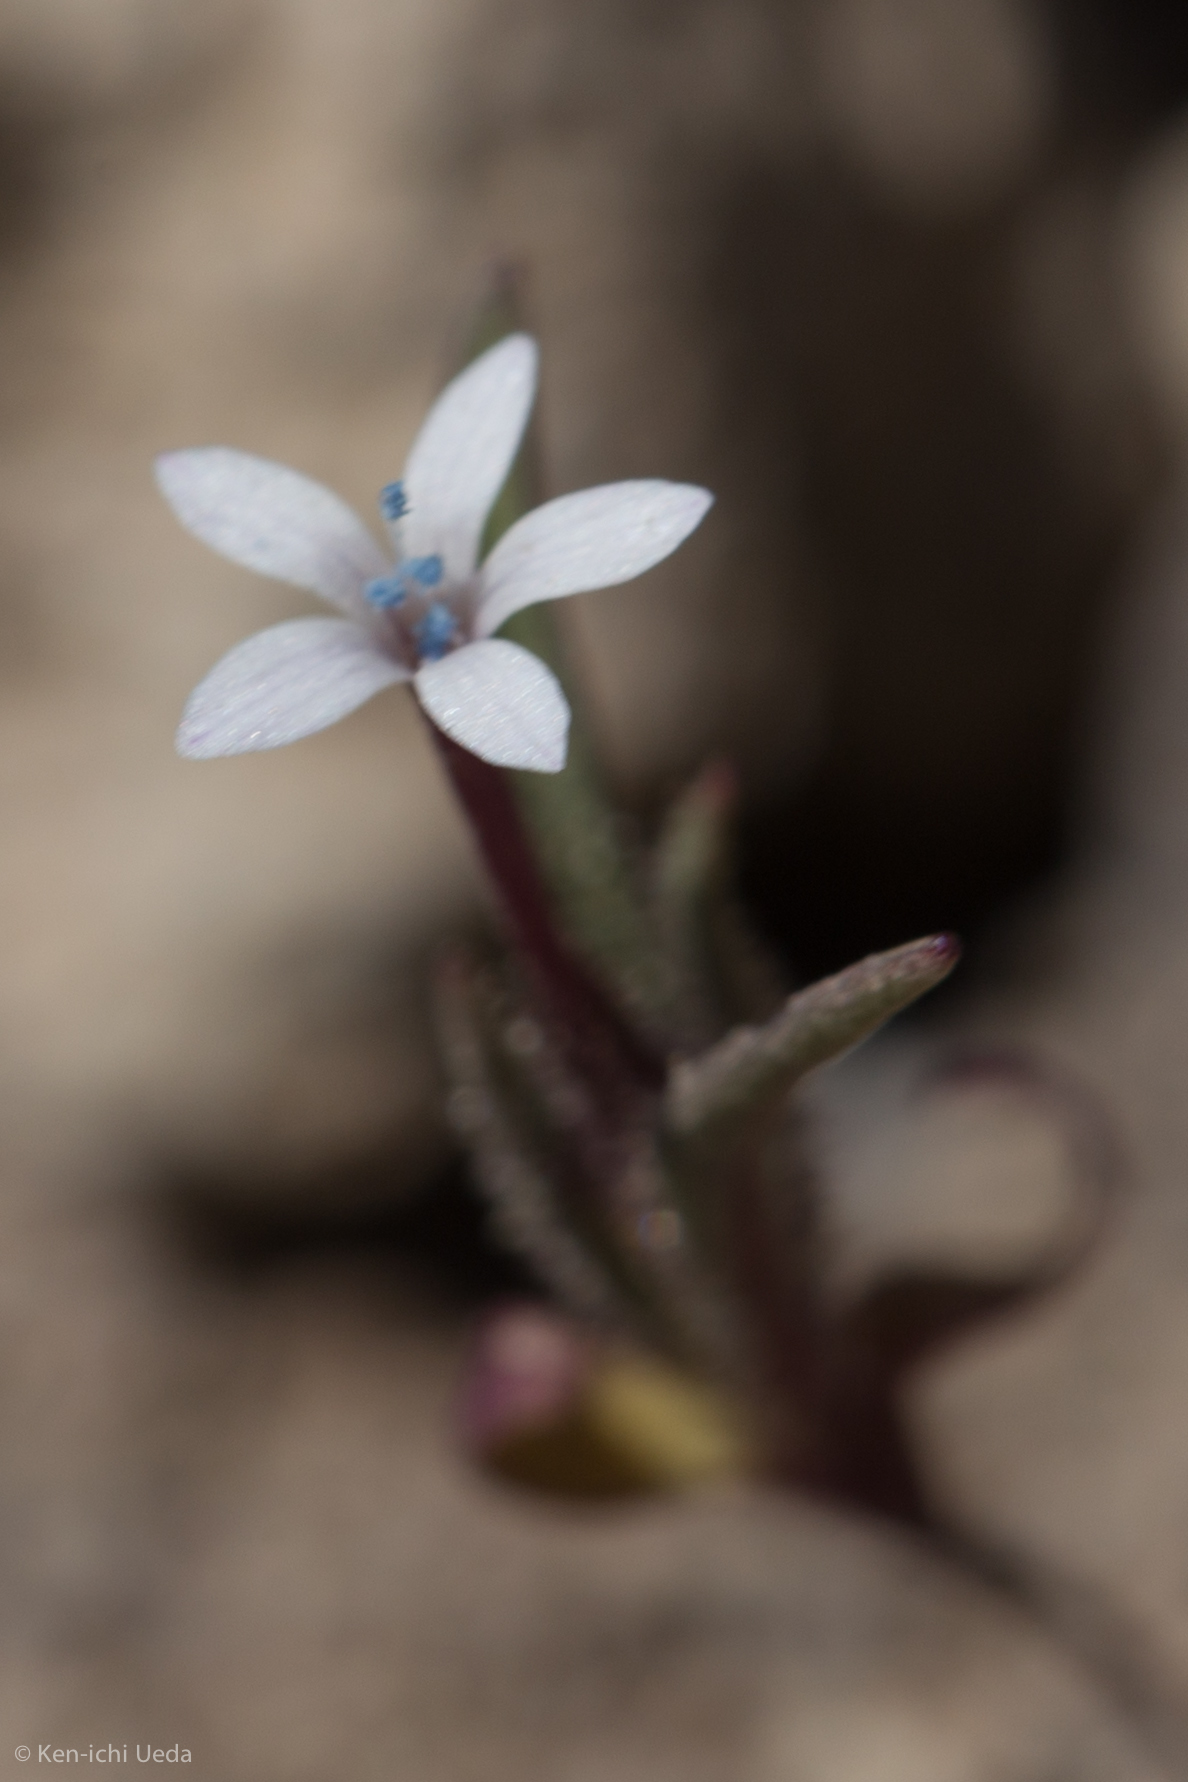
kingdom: Plantae
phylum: Tracheophyta
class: Magnoliopsida
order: Ericales
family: Polemoniaceae
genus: Collomia
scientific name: Collomia tinctoria
